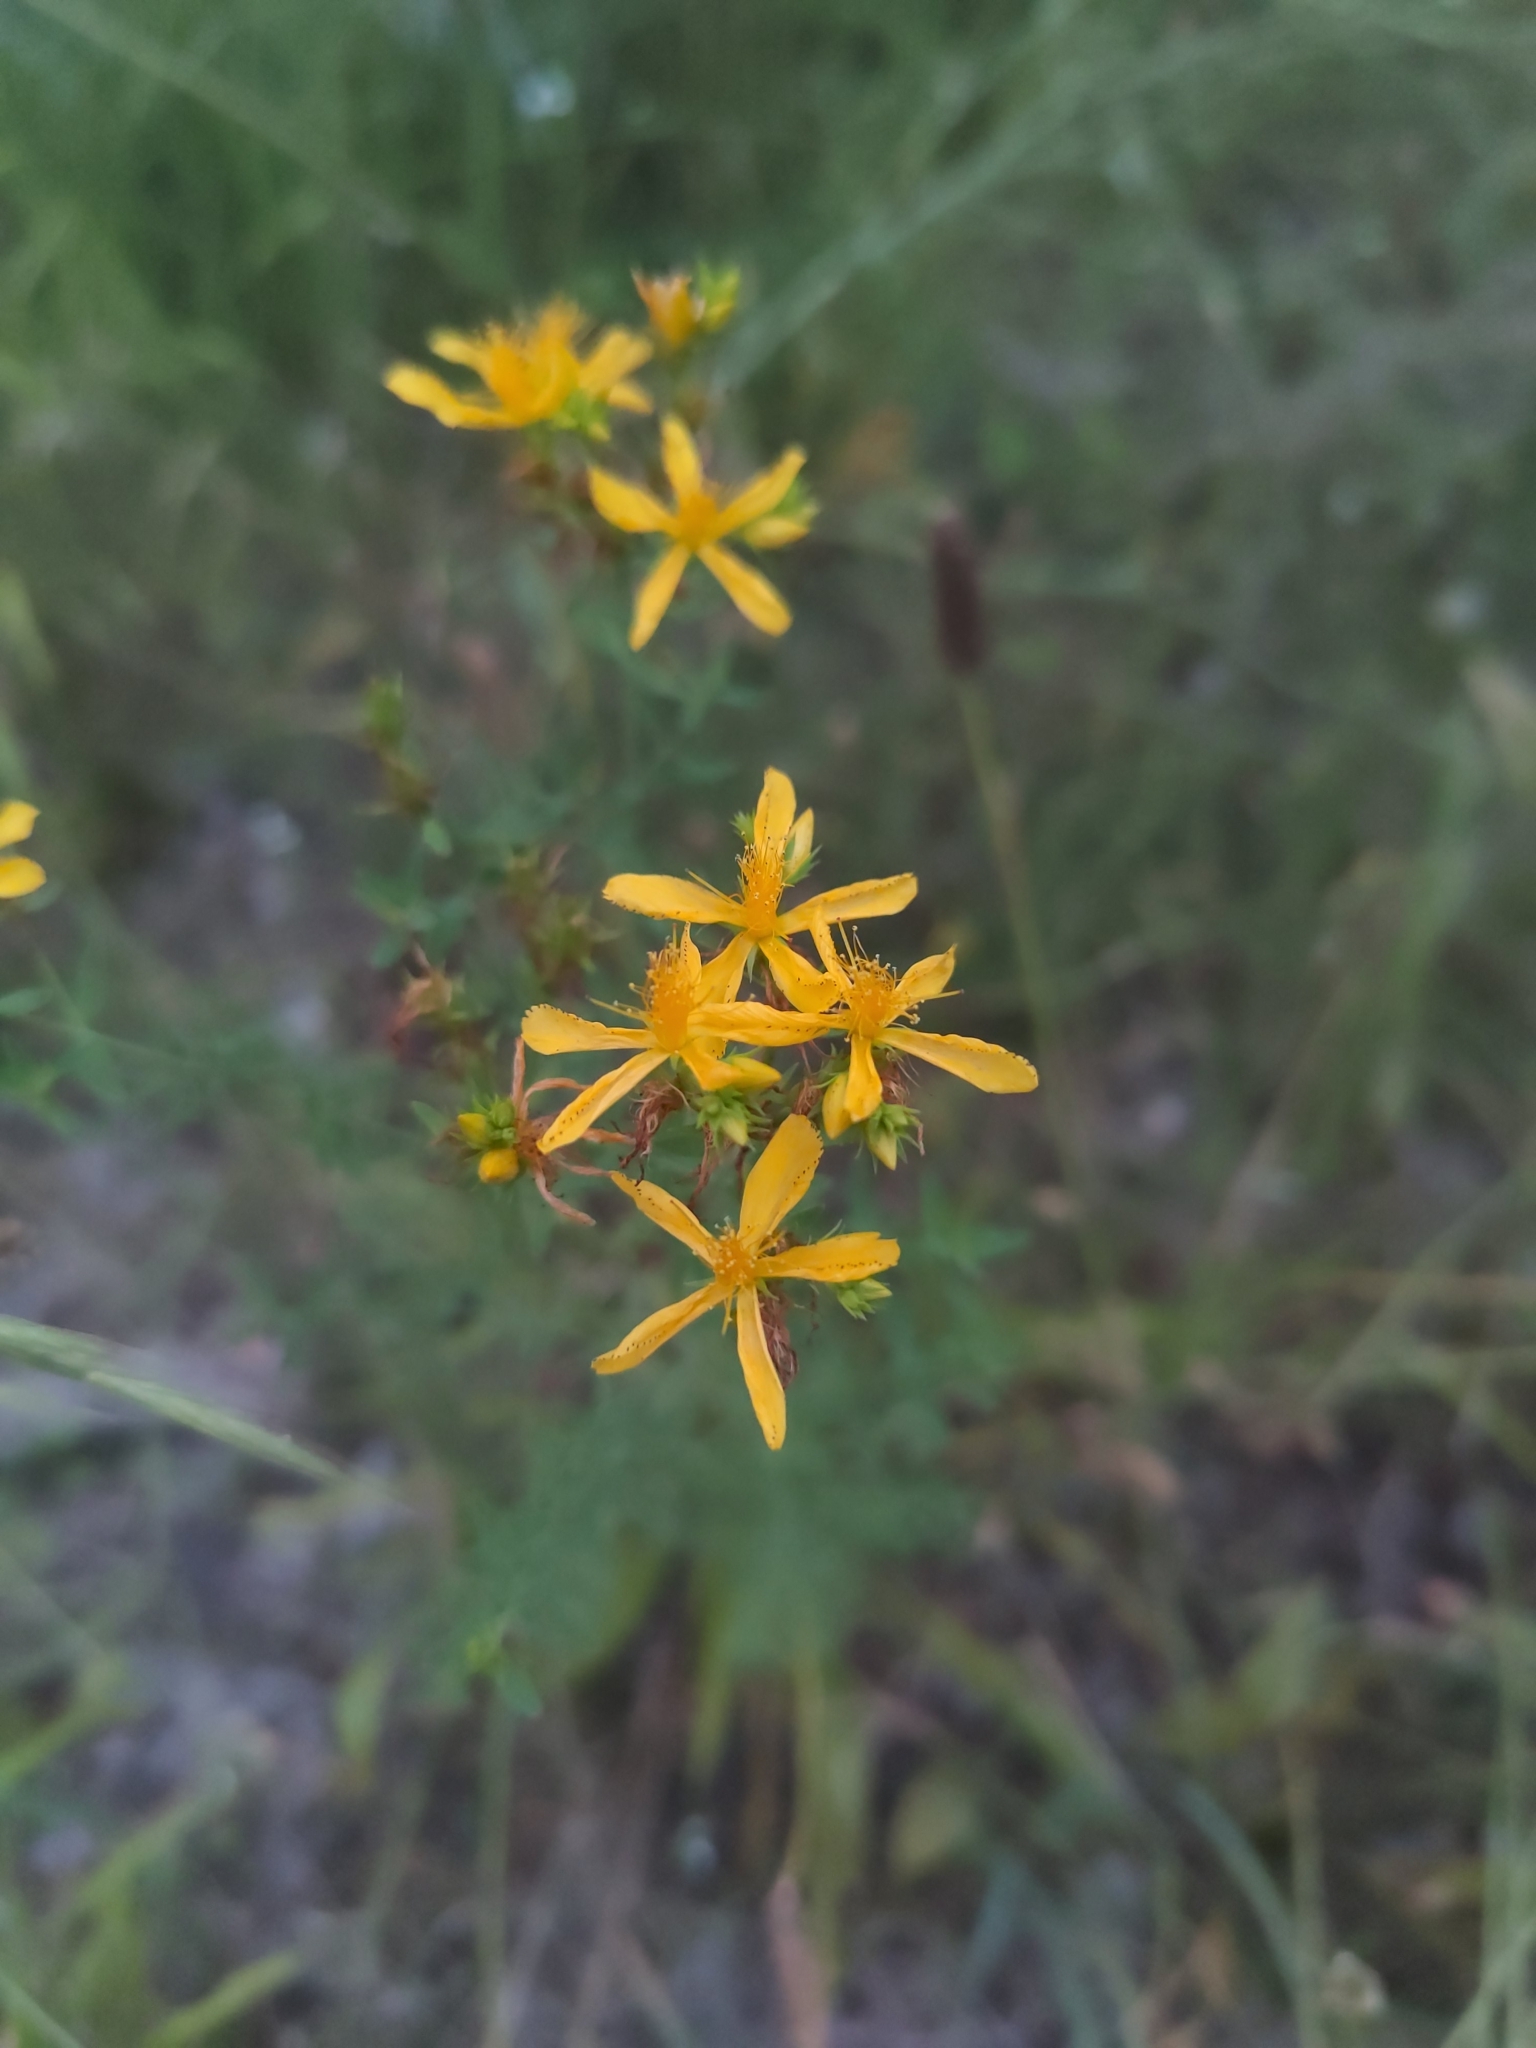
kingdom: Plantae
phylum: Tracheophyta
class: Magnoliopsida
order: Malpighiales
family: Hypericaceae
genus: Hypericum
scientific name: Hypericum perforatum
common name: Common st. johnswort
